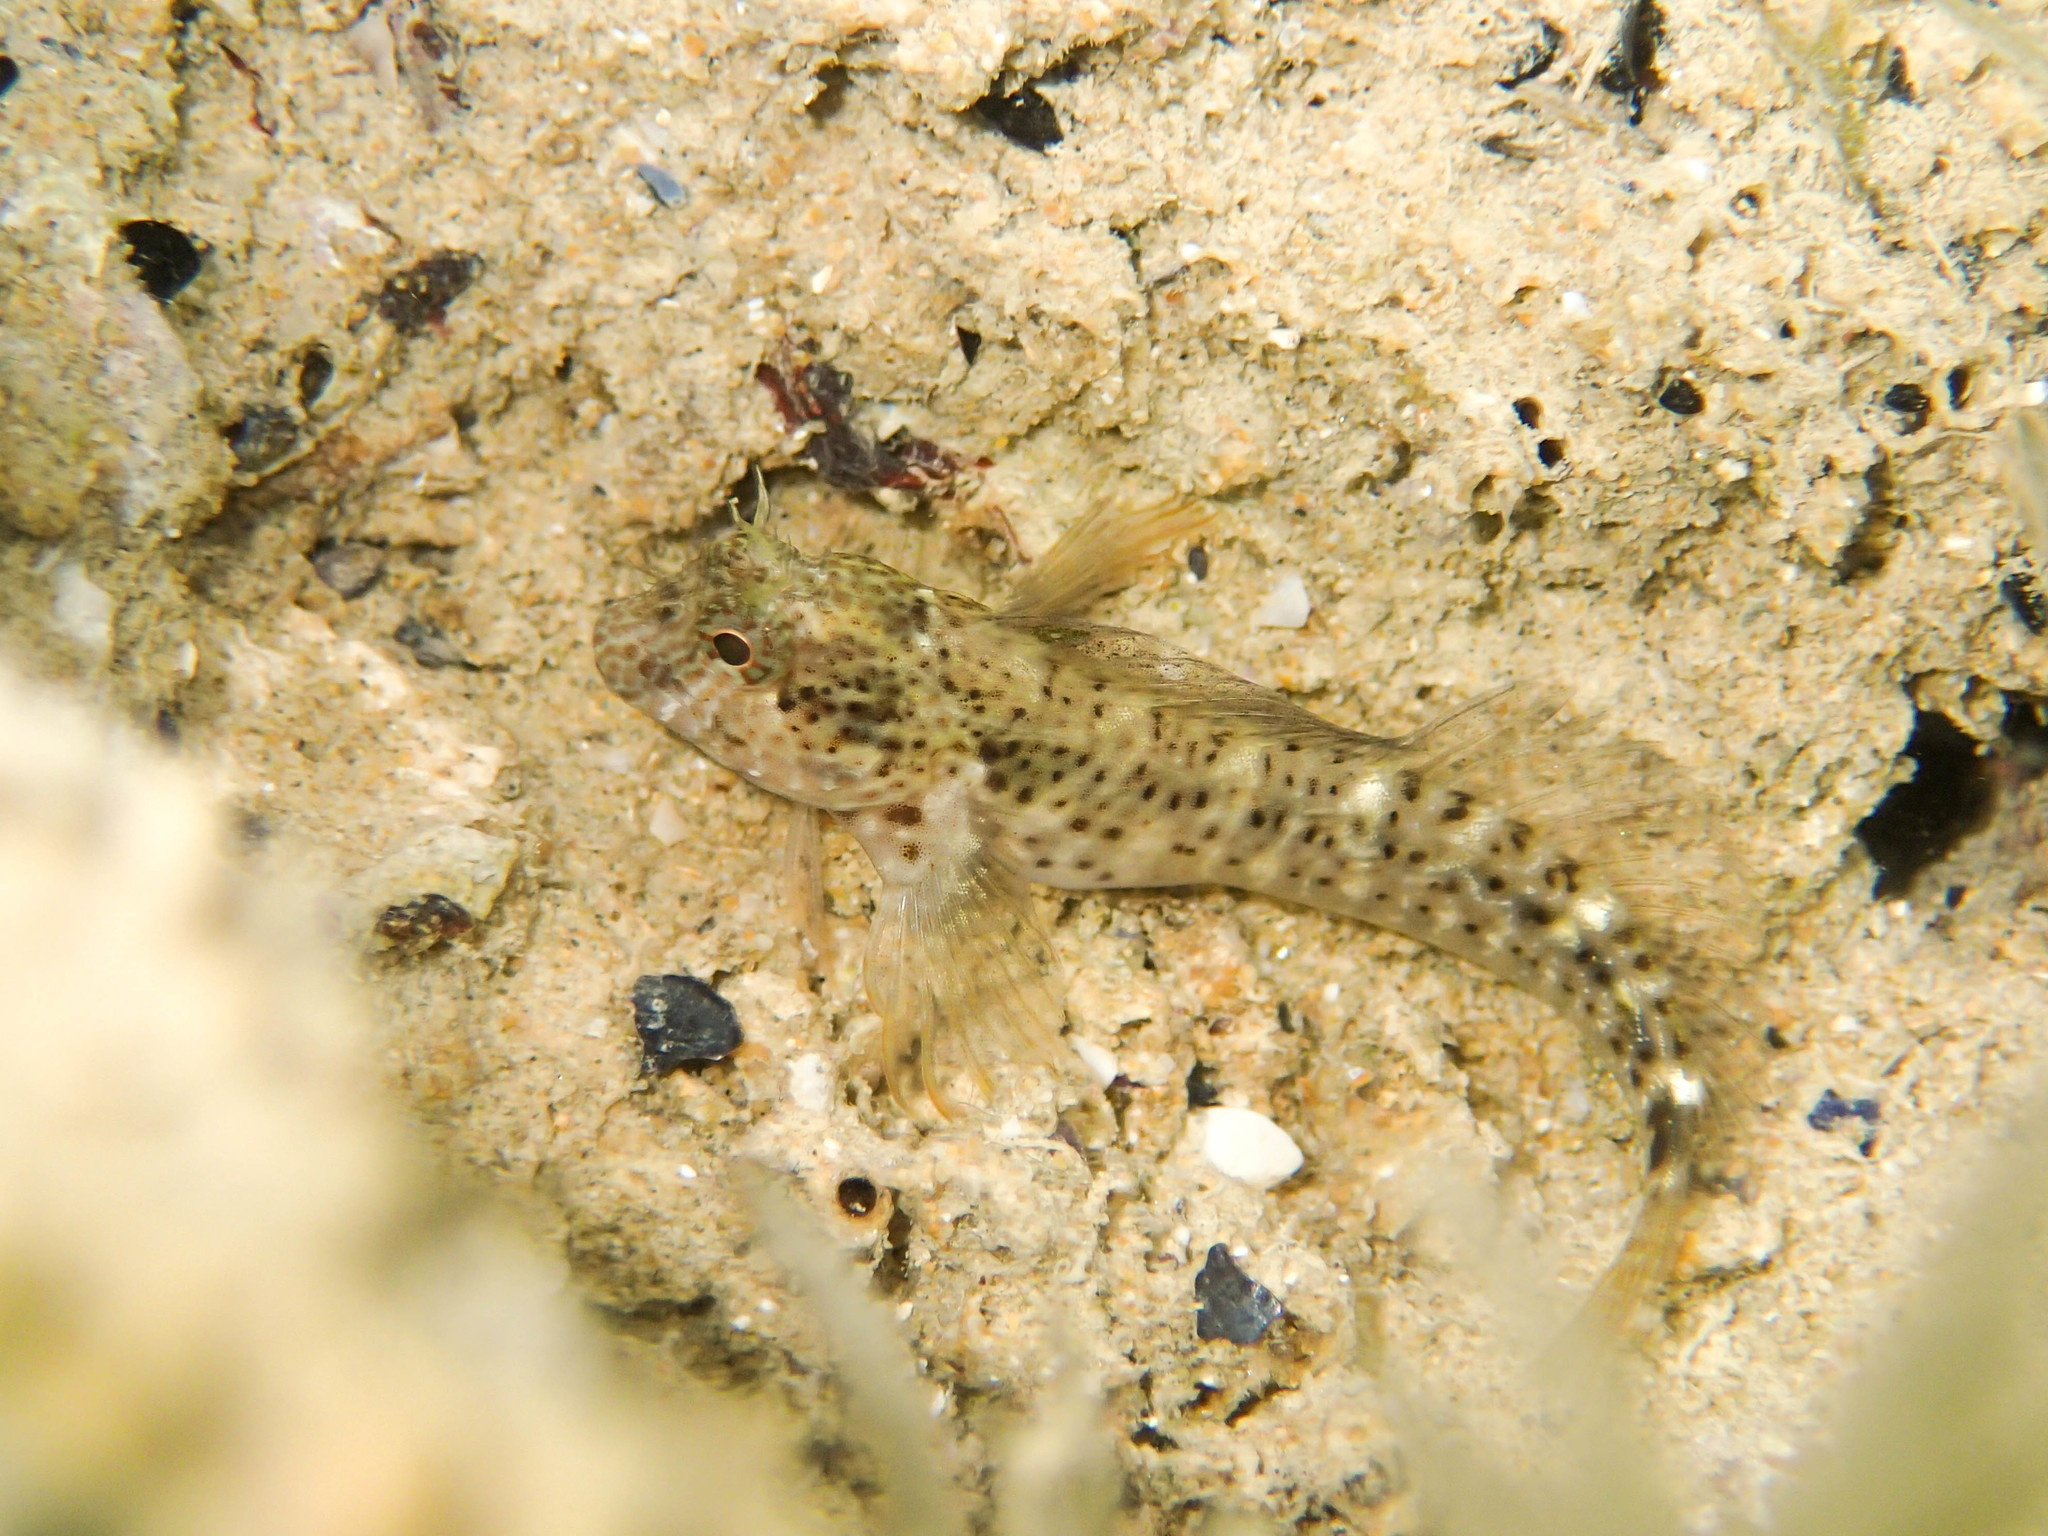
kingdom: Animalia
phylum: Chordata
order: Perciformes
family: Blenniidae
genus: Parablennius
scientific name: Parablennius zvonimiri
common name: Red blenny
